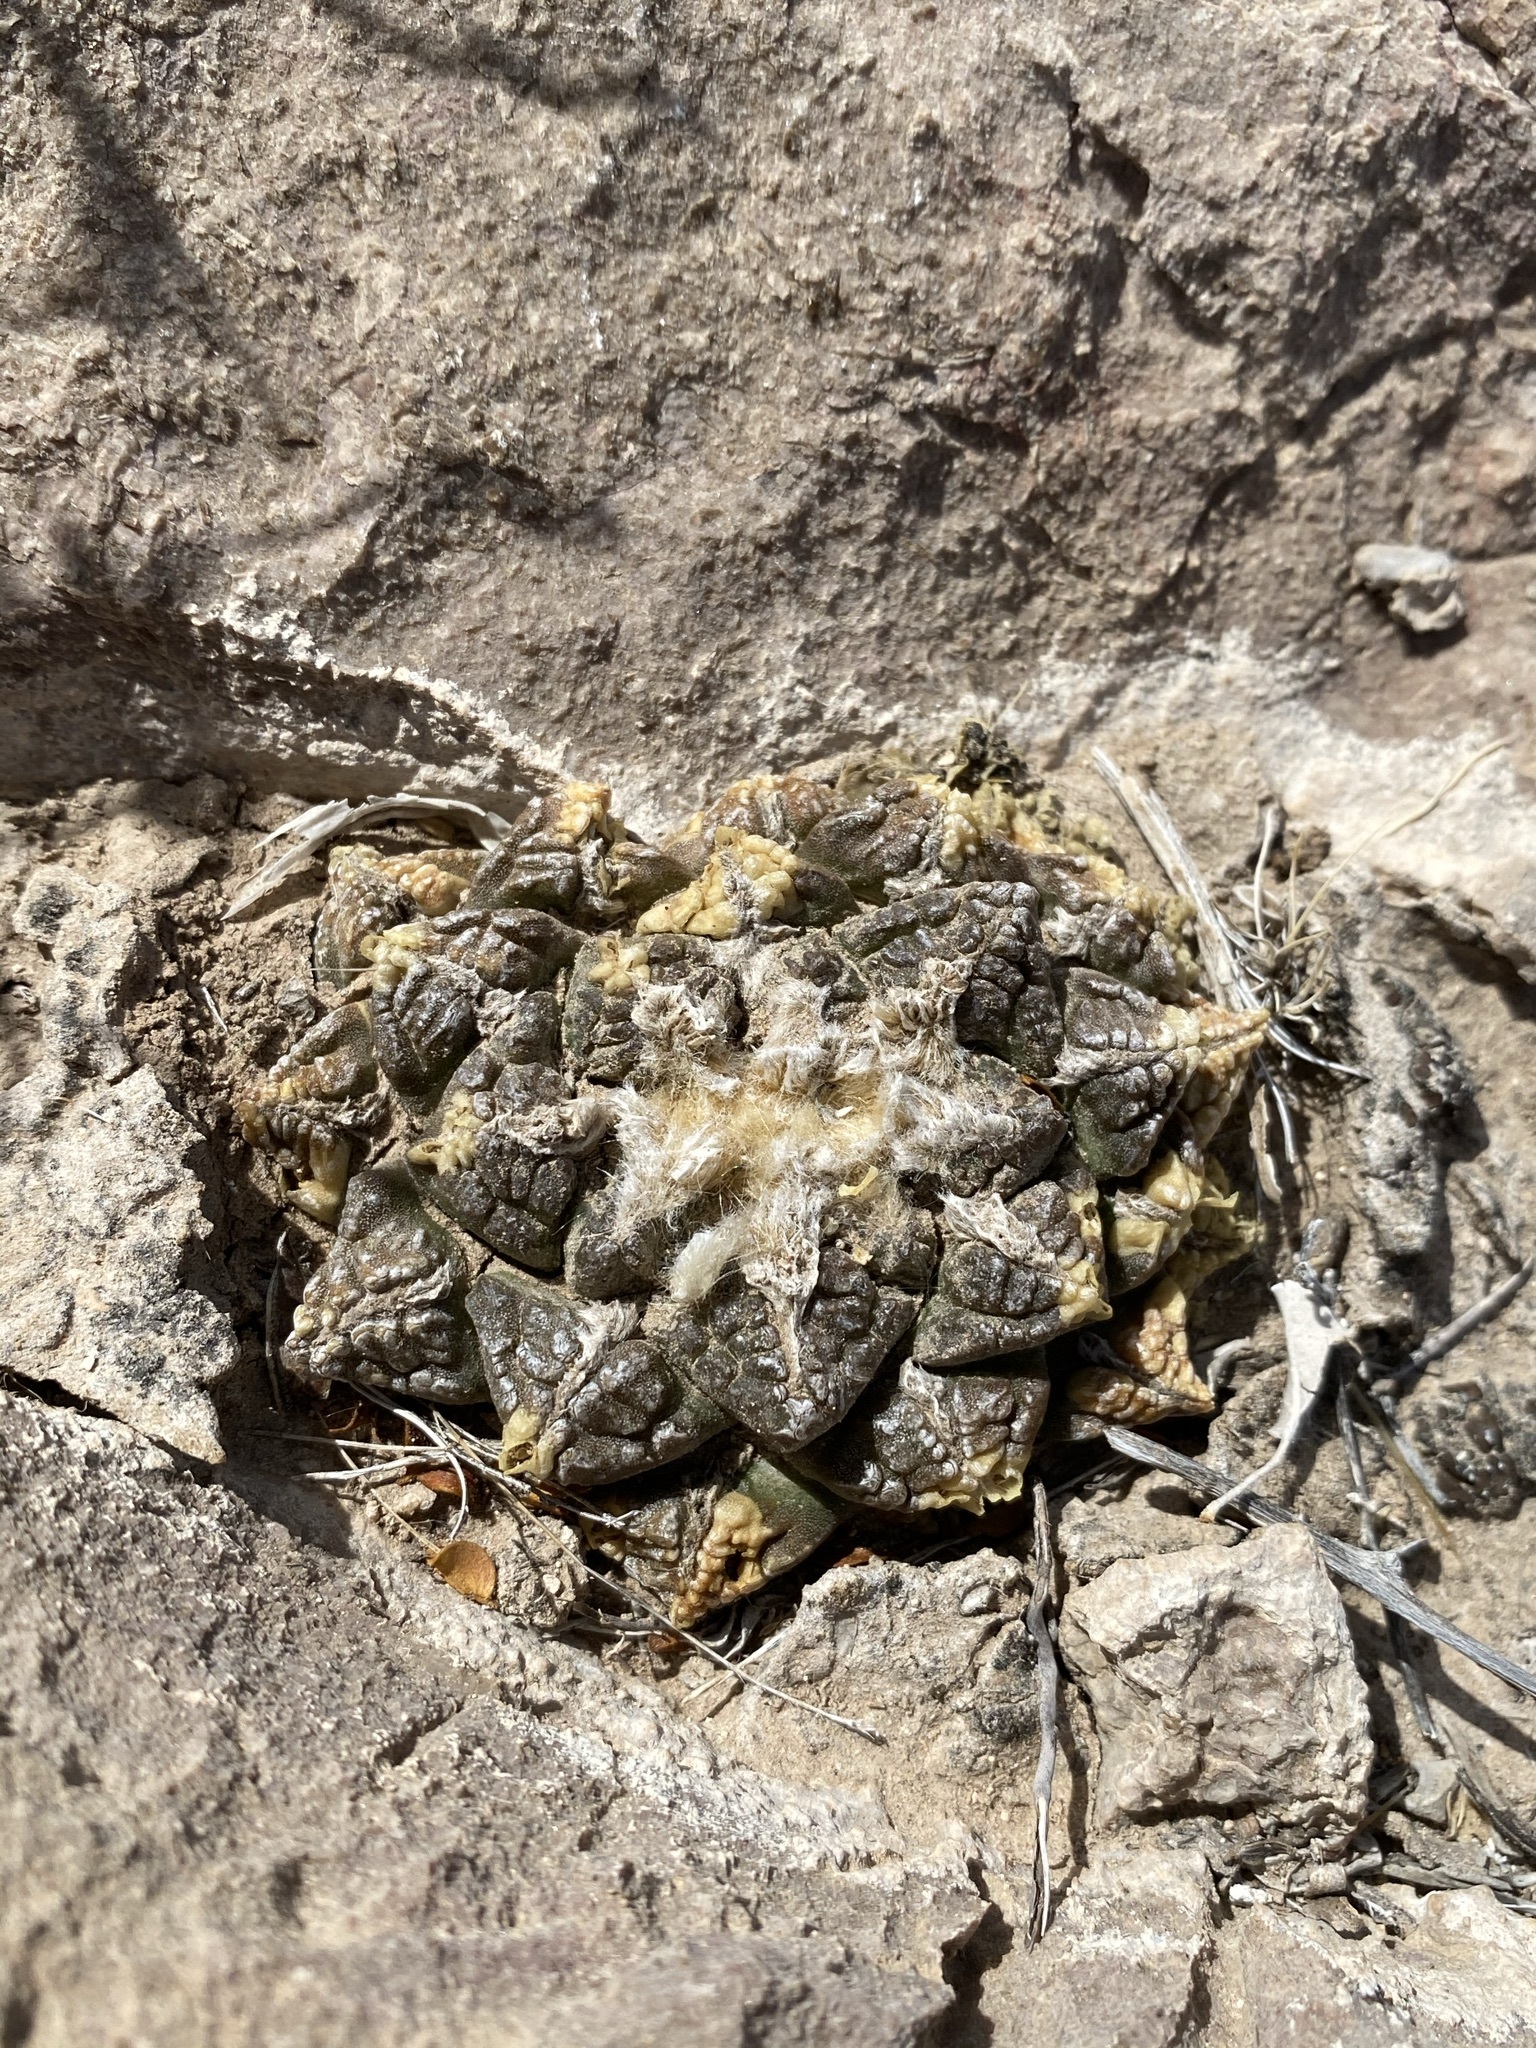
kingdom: Plantae
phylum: Tracheophyta
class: Magnoliopsida
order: Caryophyllales
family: Cactaceae
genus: Ariocarpus
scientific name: Ariocarpus fissuratus
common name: Chautle-living rock
